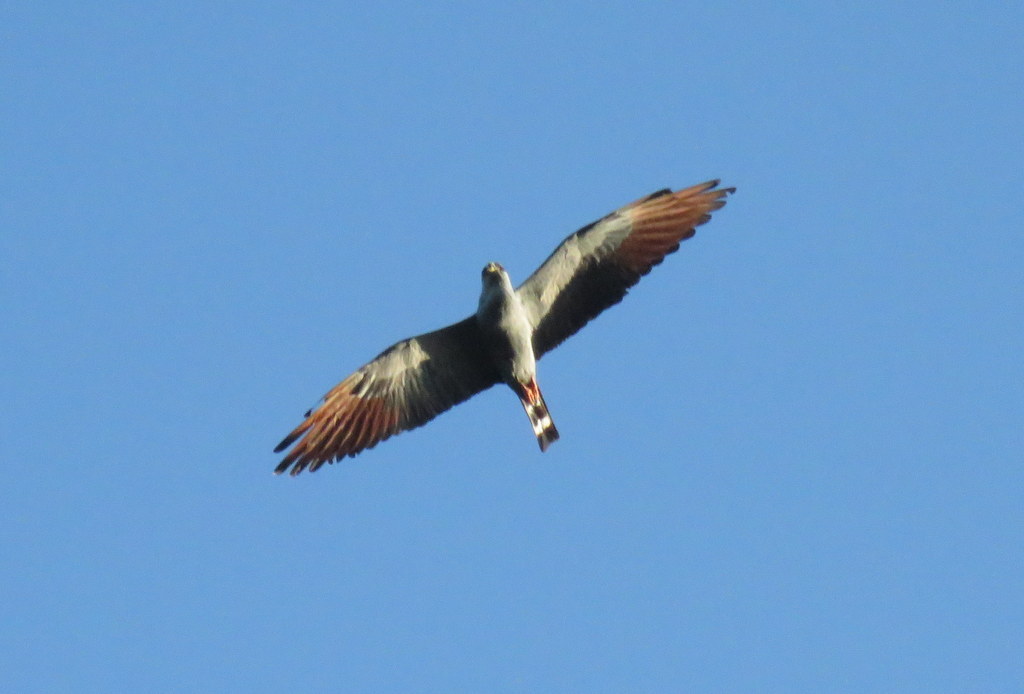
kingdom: Animalia
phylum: Chordata
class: Aves
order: Accipitriformes
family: Accipitridae
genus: Ictinia
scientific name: Ictinia plumbea
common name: Plumbeous kite
